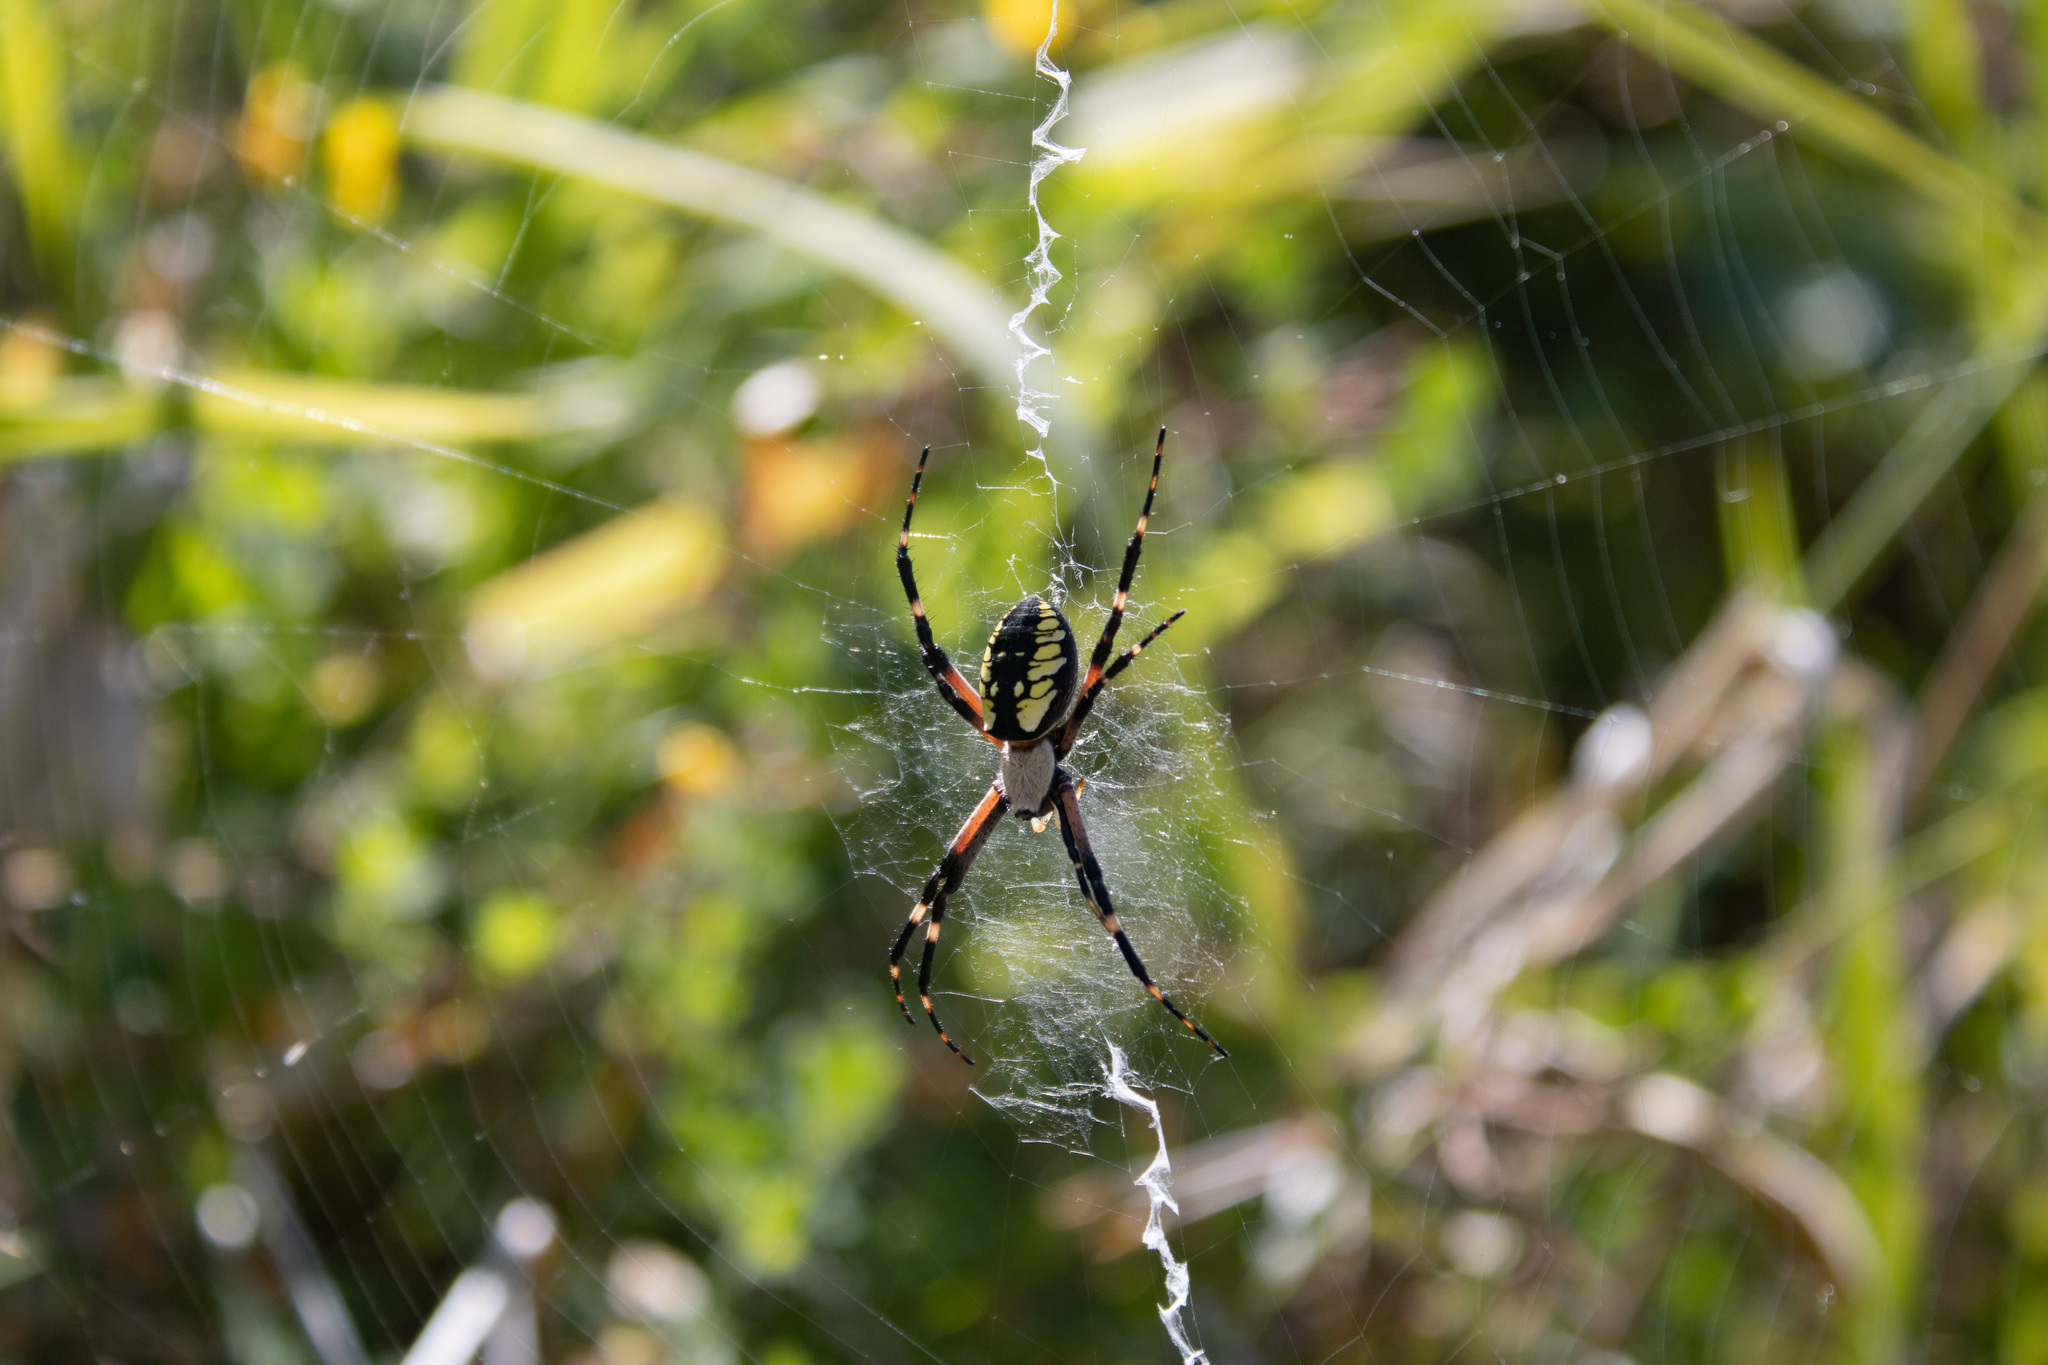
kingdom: Animalia
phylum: Arthropoda
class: Arachnida
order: Araneae
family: Araneidae
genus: Argiope
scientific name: Argiope aurantia
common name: Orb weavers
